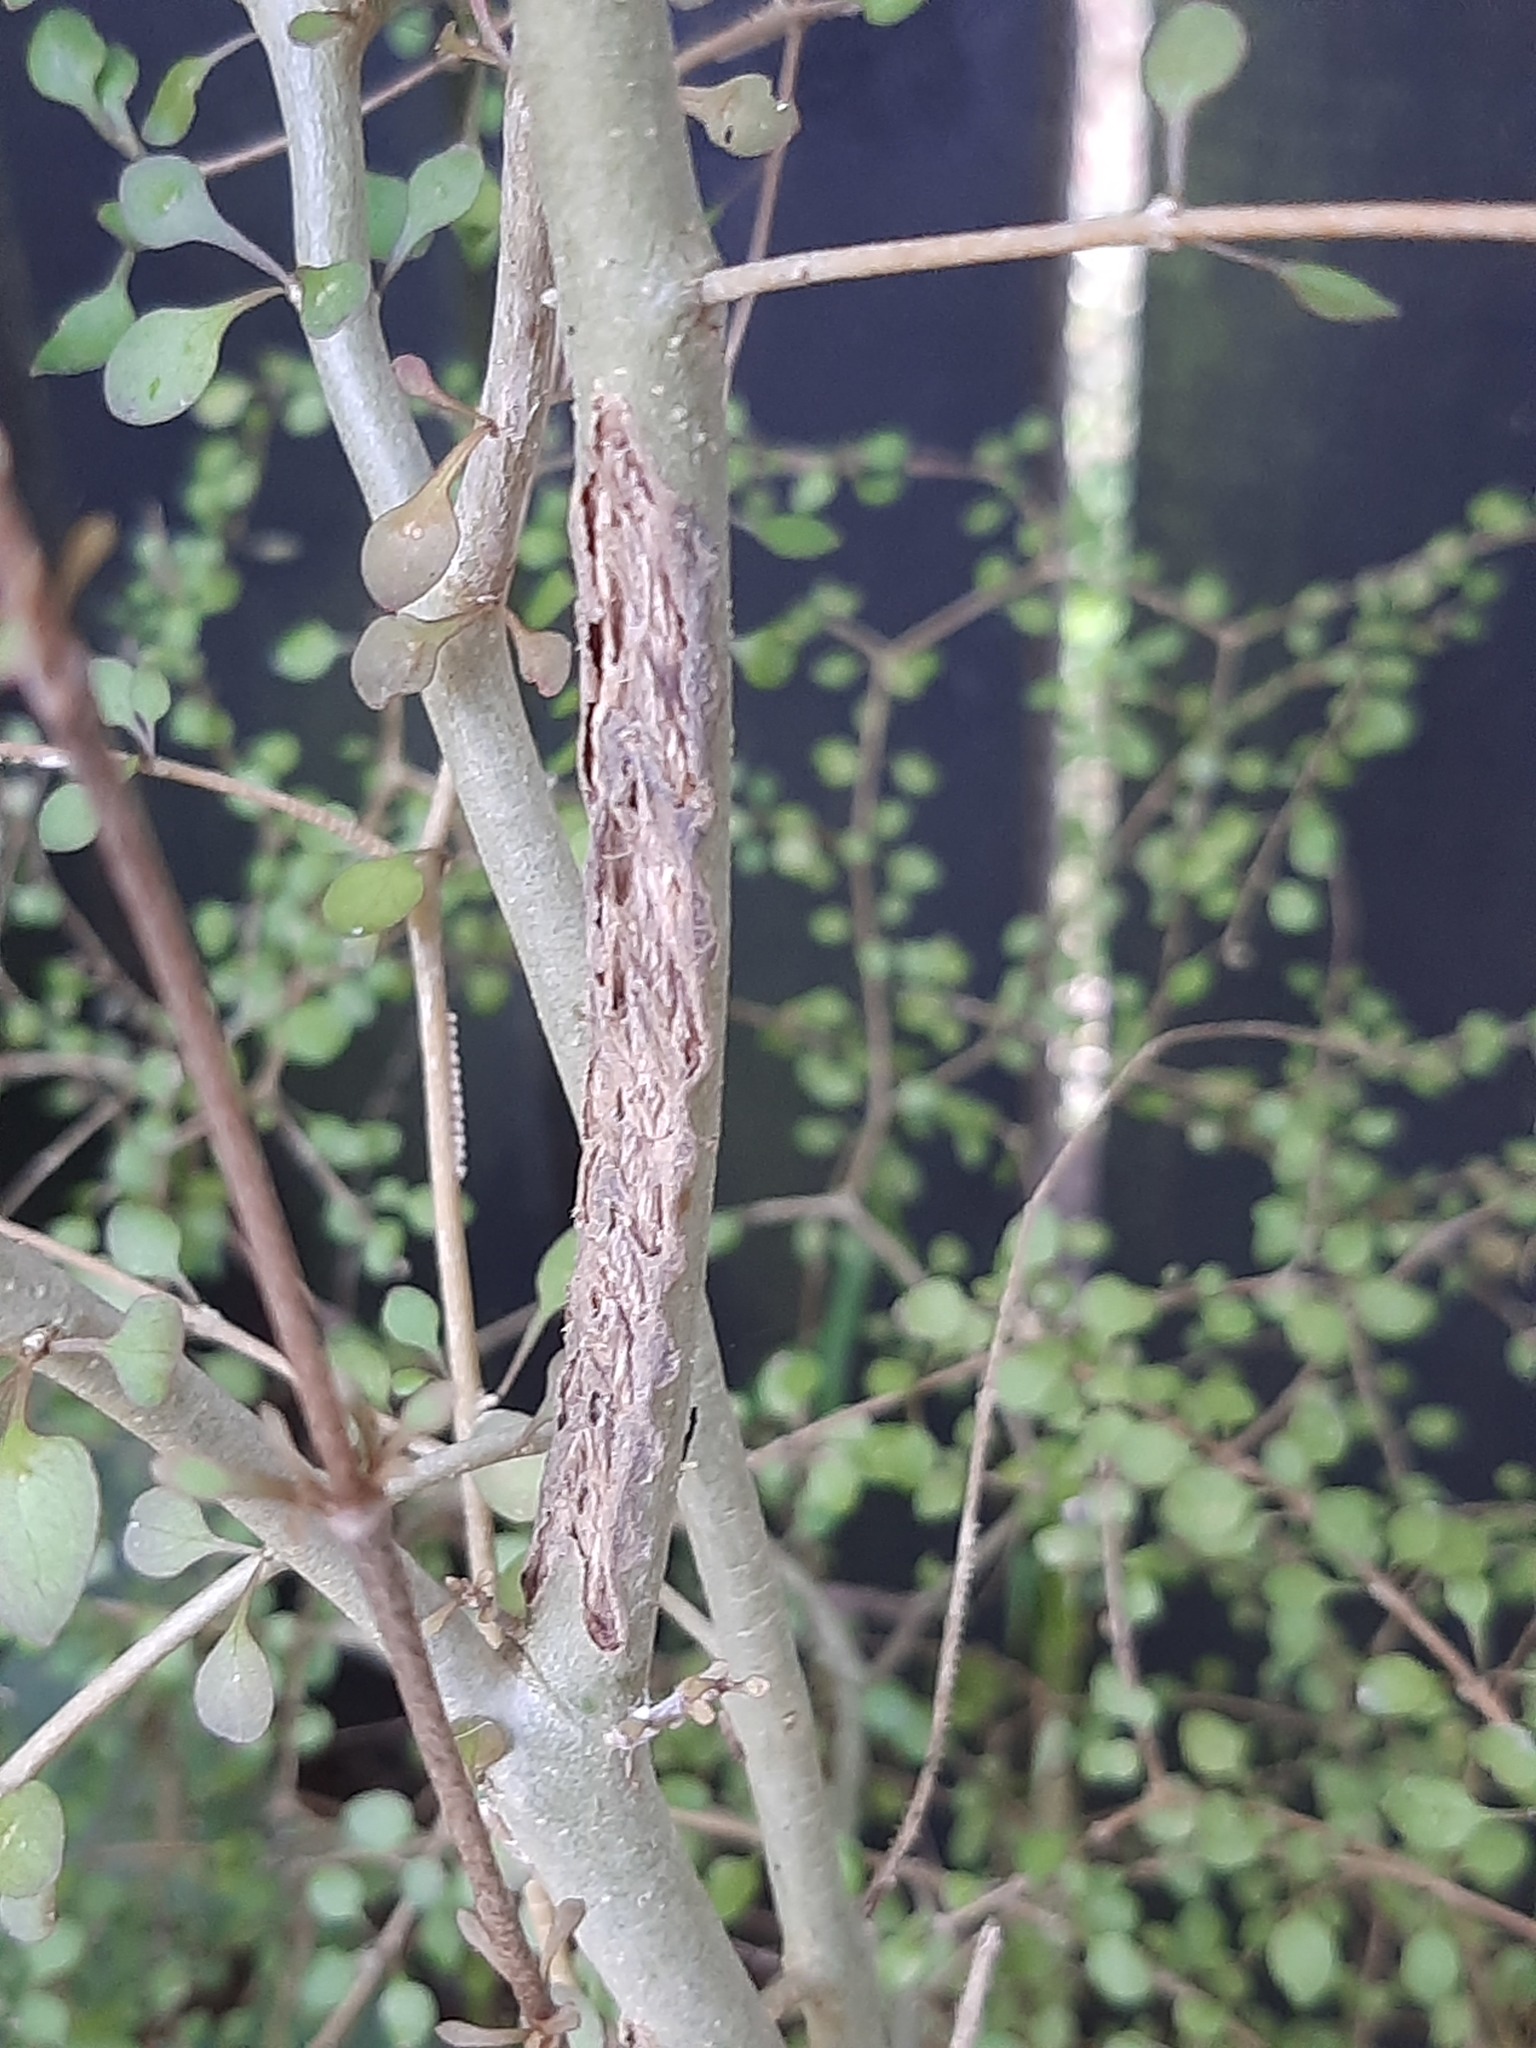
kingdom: Plantae
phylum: Tracheophyta
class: Magnoliopsida
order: Gentianales
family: Rubiaceae
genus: Coprosma
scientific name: Coprosma virescens
